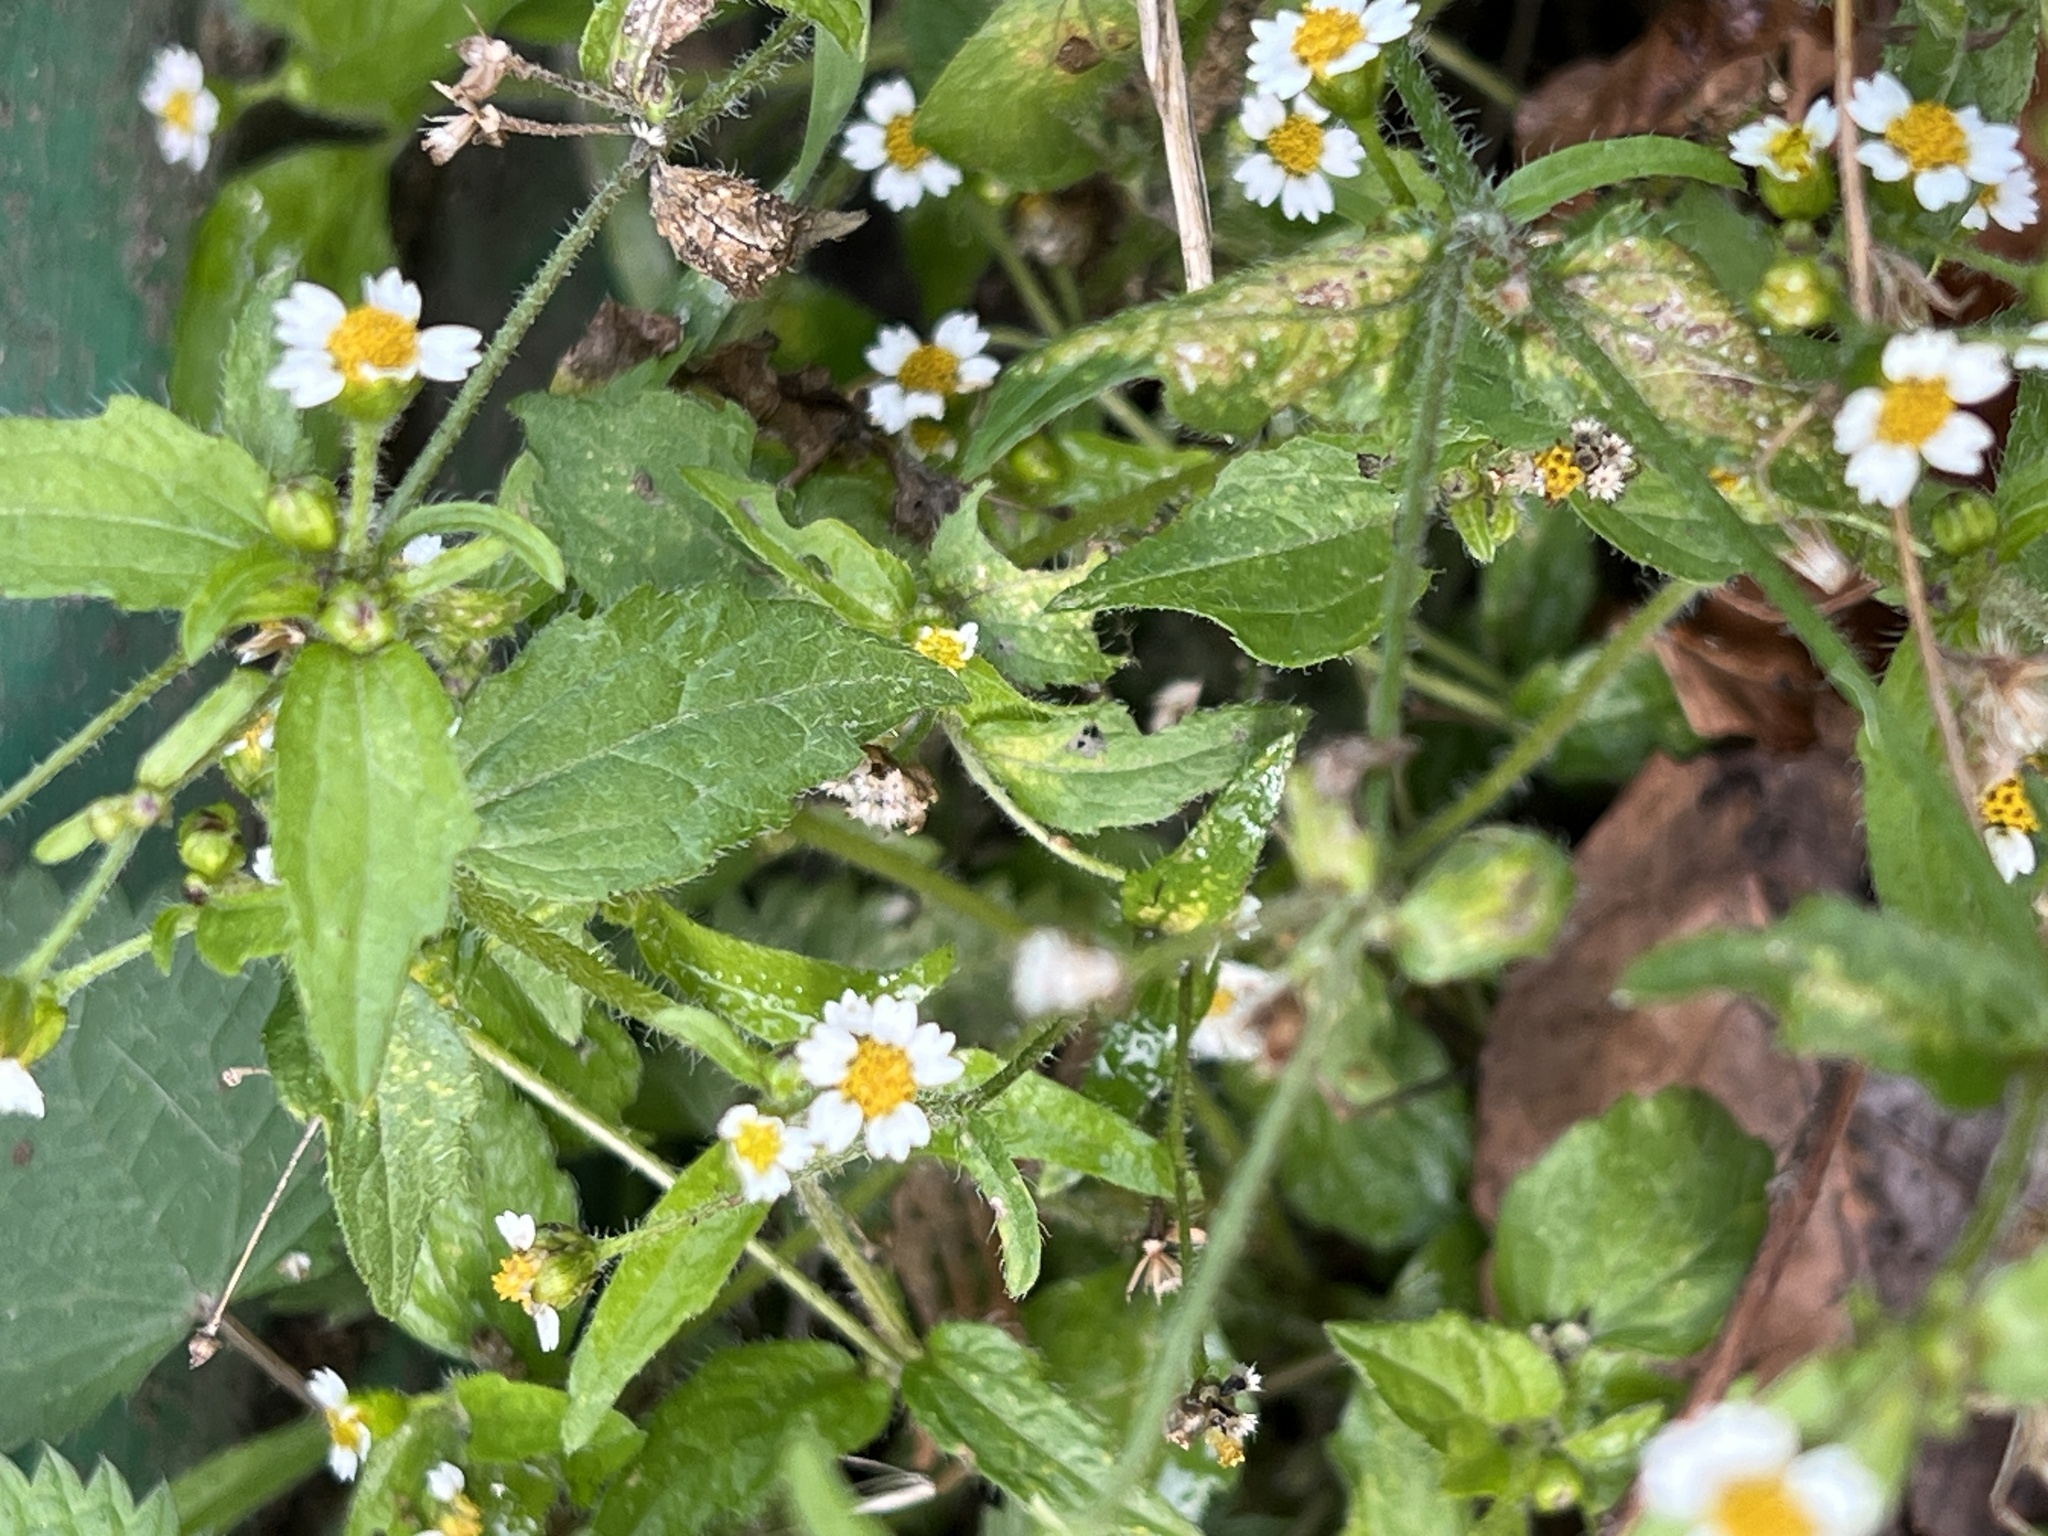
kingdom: Plantae
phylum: Tracheophyta
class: Magnoliopsida
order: Asterales
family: Asteraceae
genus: Galinsoga
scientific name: Galinsoga quadriradiata
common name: Shaggy soldier
